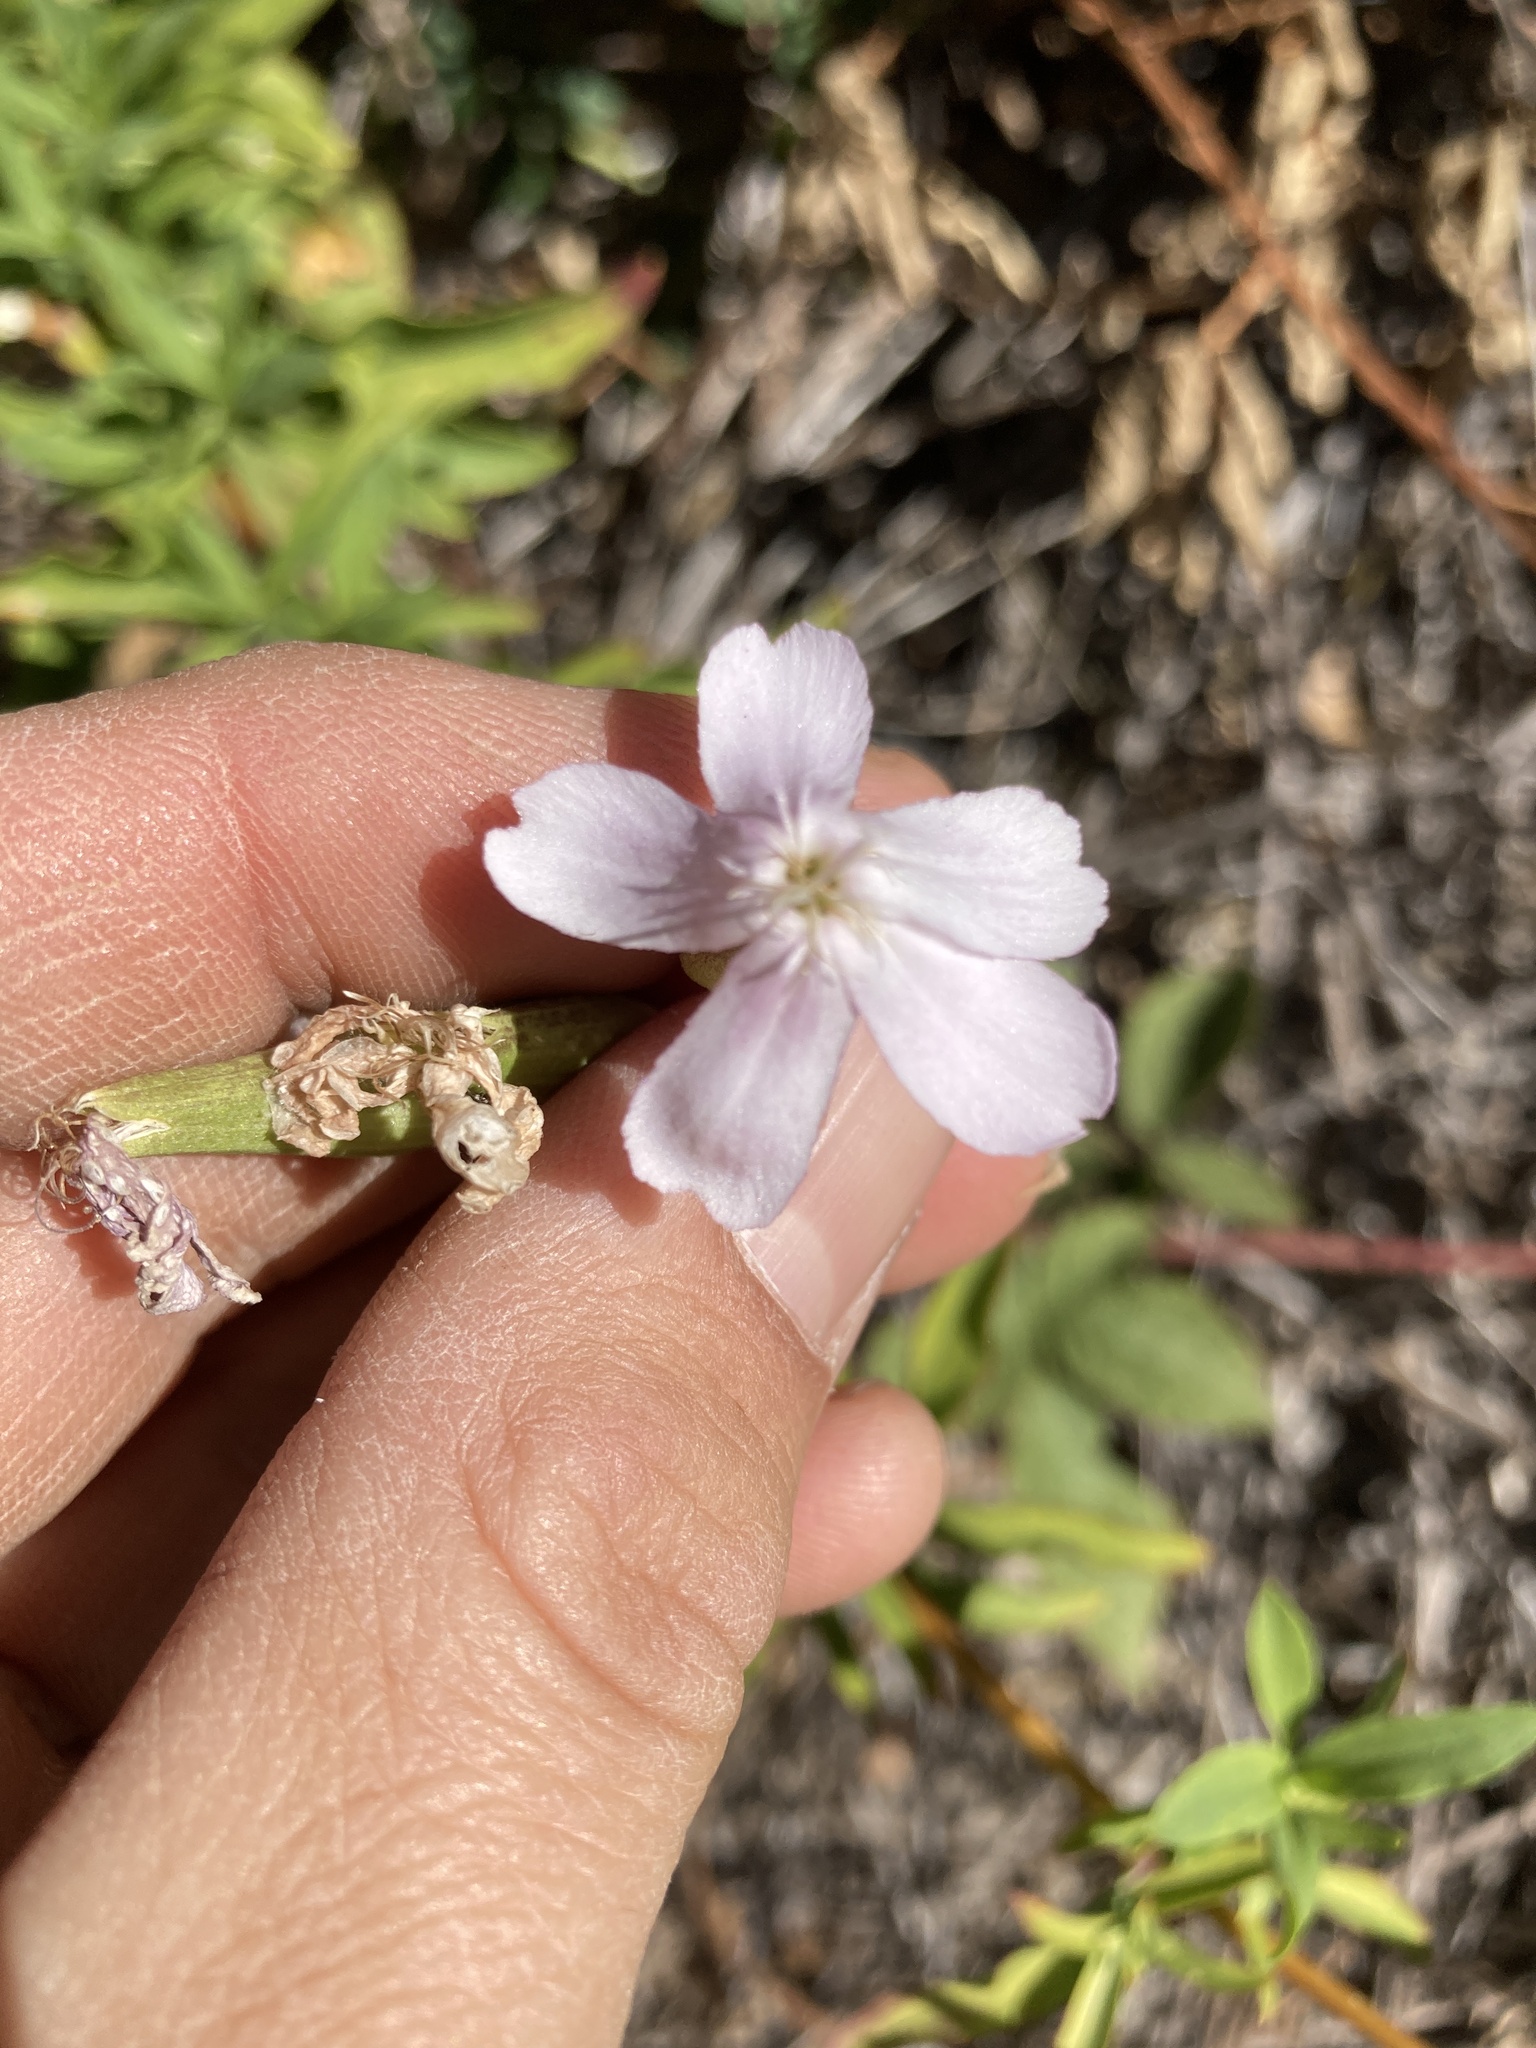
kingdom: Plantae
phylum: Tracheophyta
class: Magnoliopsida
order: Caryophyllales
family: Caryophyllaceae
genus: Saponaria
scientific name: Saponaria officinalis
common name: Soapwort
